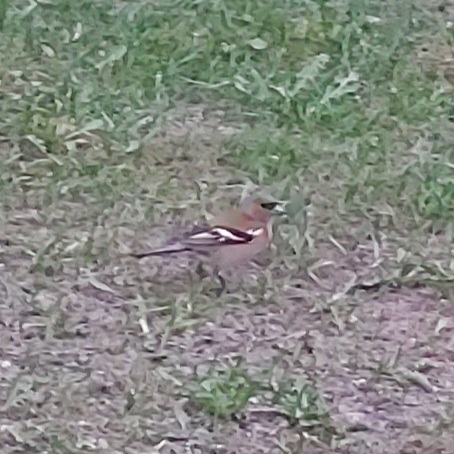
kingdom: Animalia
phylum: Chordata
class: Aves
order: Passeriformes
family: Fringillidae
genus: Fringilla
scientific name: Fringilla coelebs
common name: Common chaffinch
